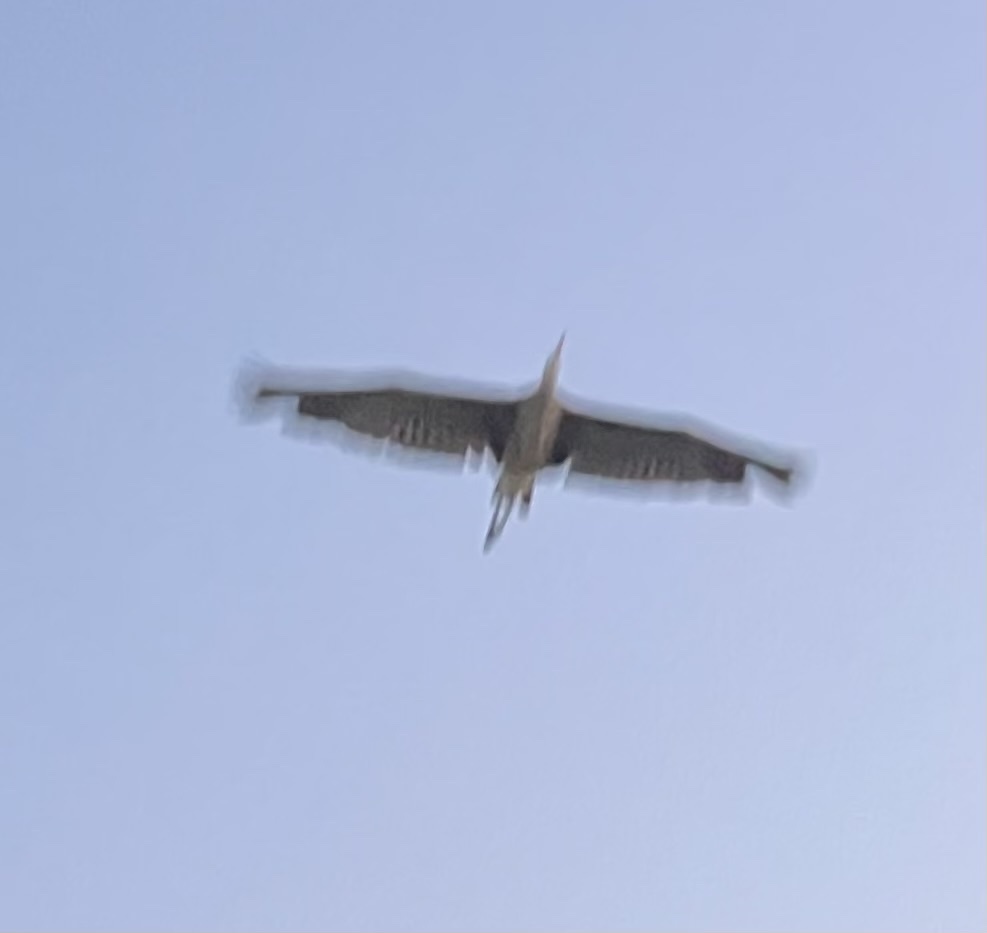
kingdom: Animalia
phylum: Chordata
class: Aves
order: Pelecaniformes
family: Ardeidae
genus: Ardea
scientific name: Ardea herodias
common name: Great blue heron
